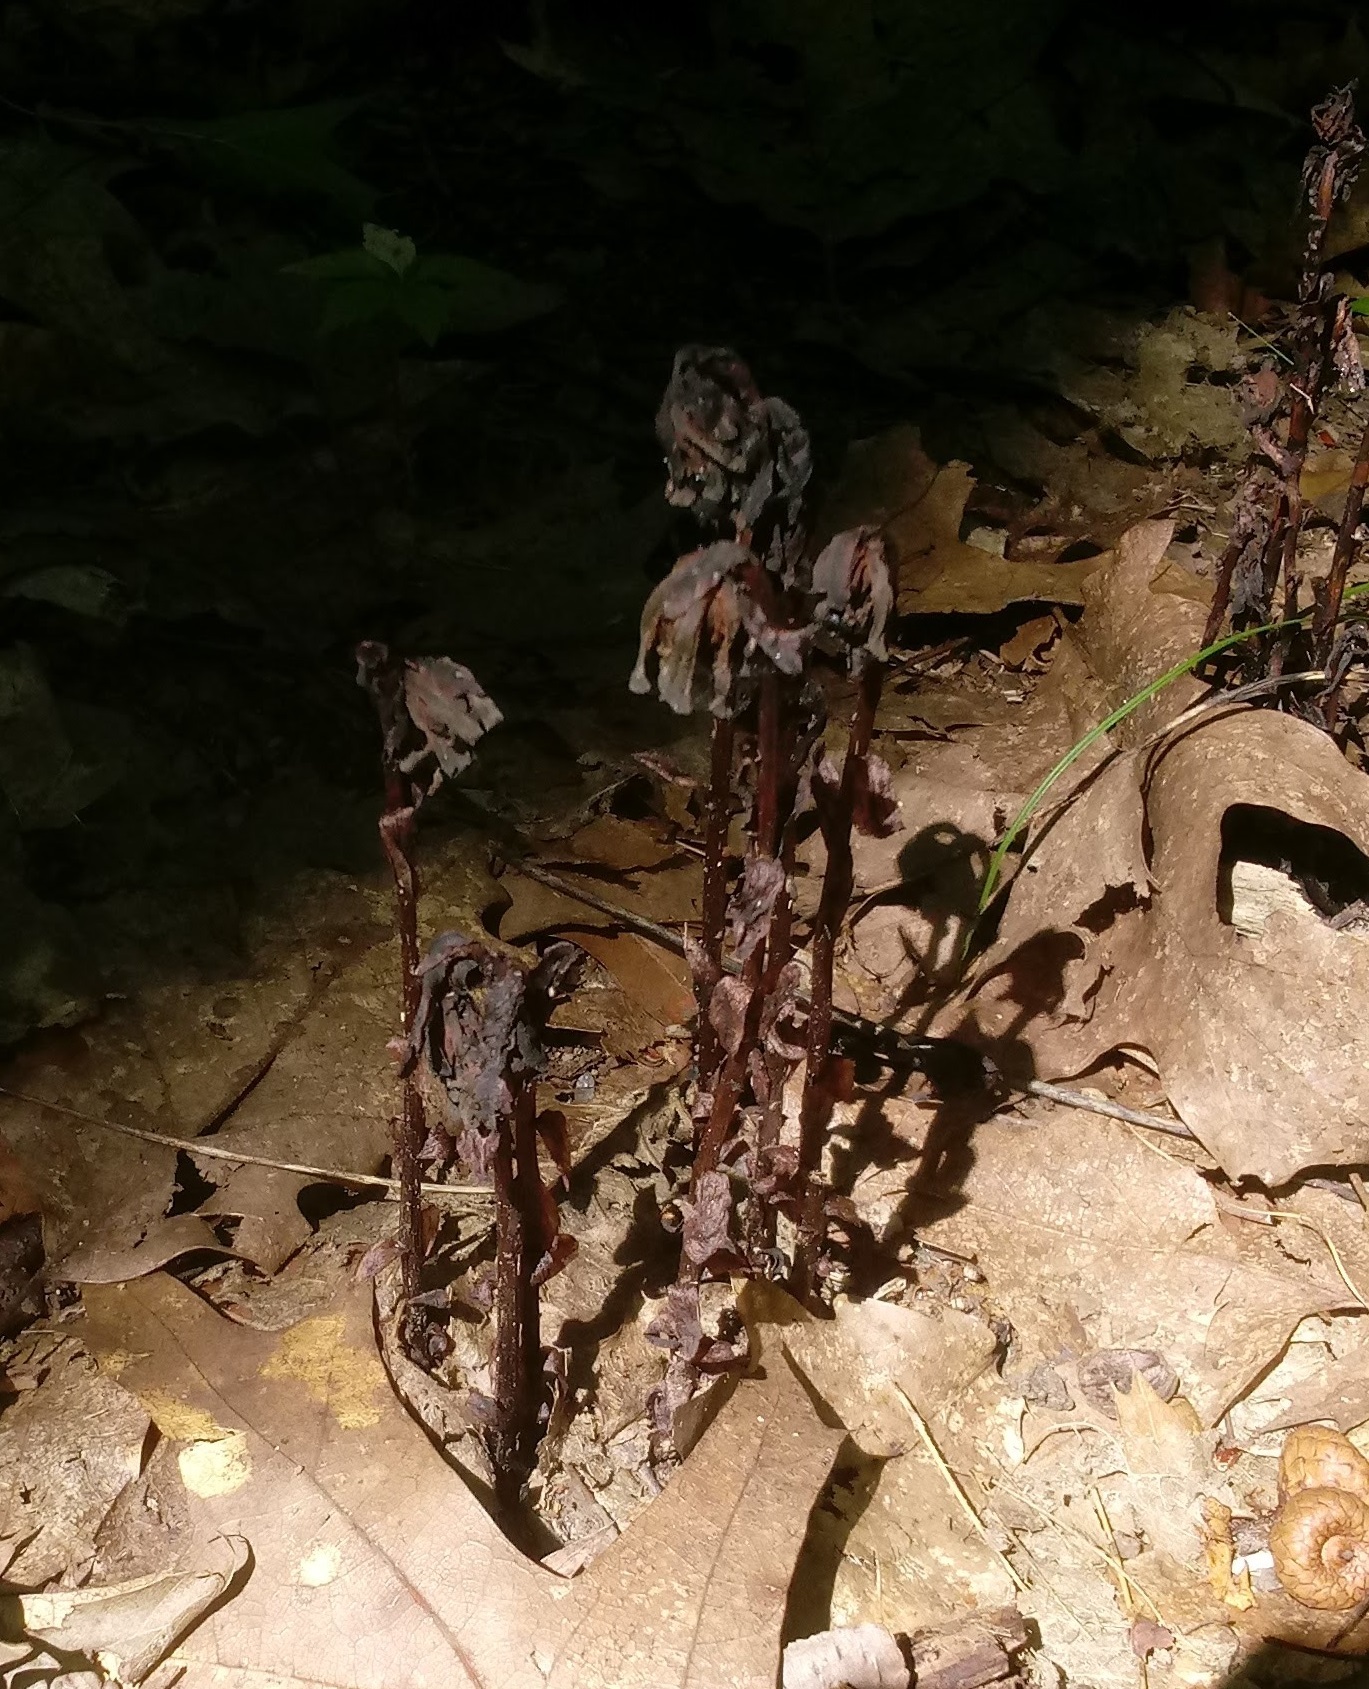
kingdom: Plantae
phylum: Tracheophyta
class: Magnoliopsida
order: Ericales
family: Ericaceae
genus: Monotropa
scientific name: Monotropa uniflora
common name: Convulsion root
